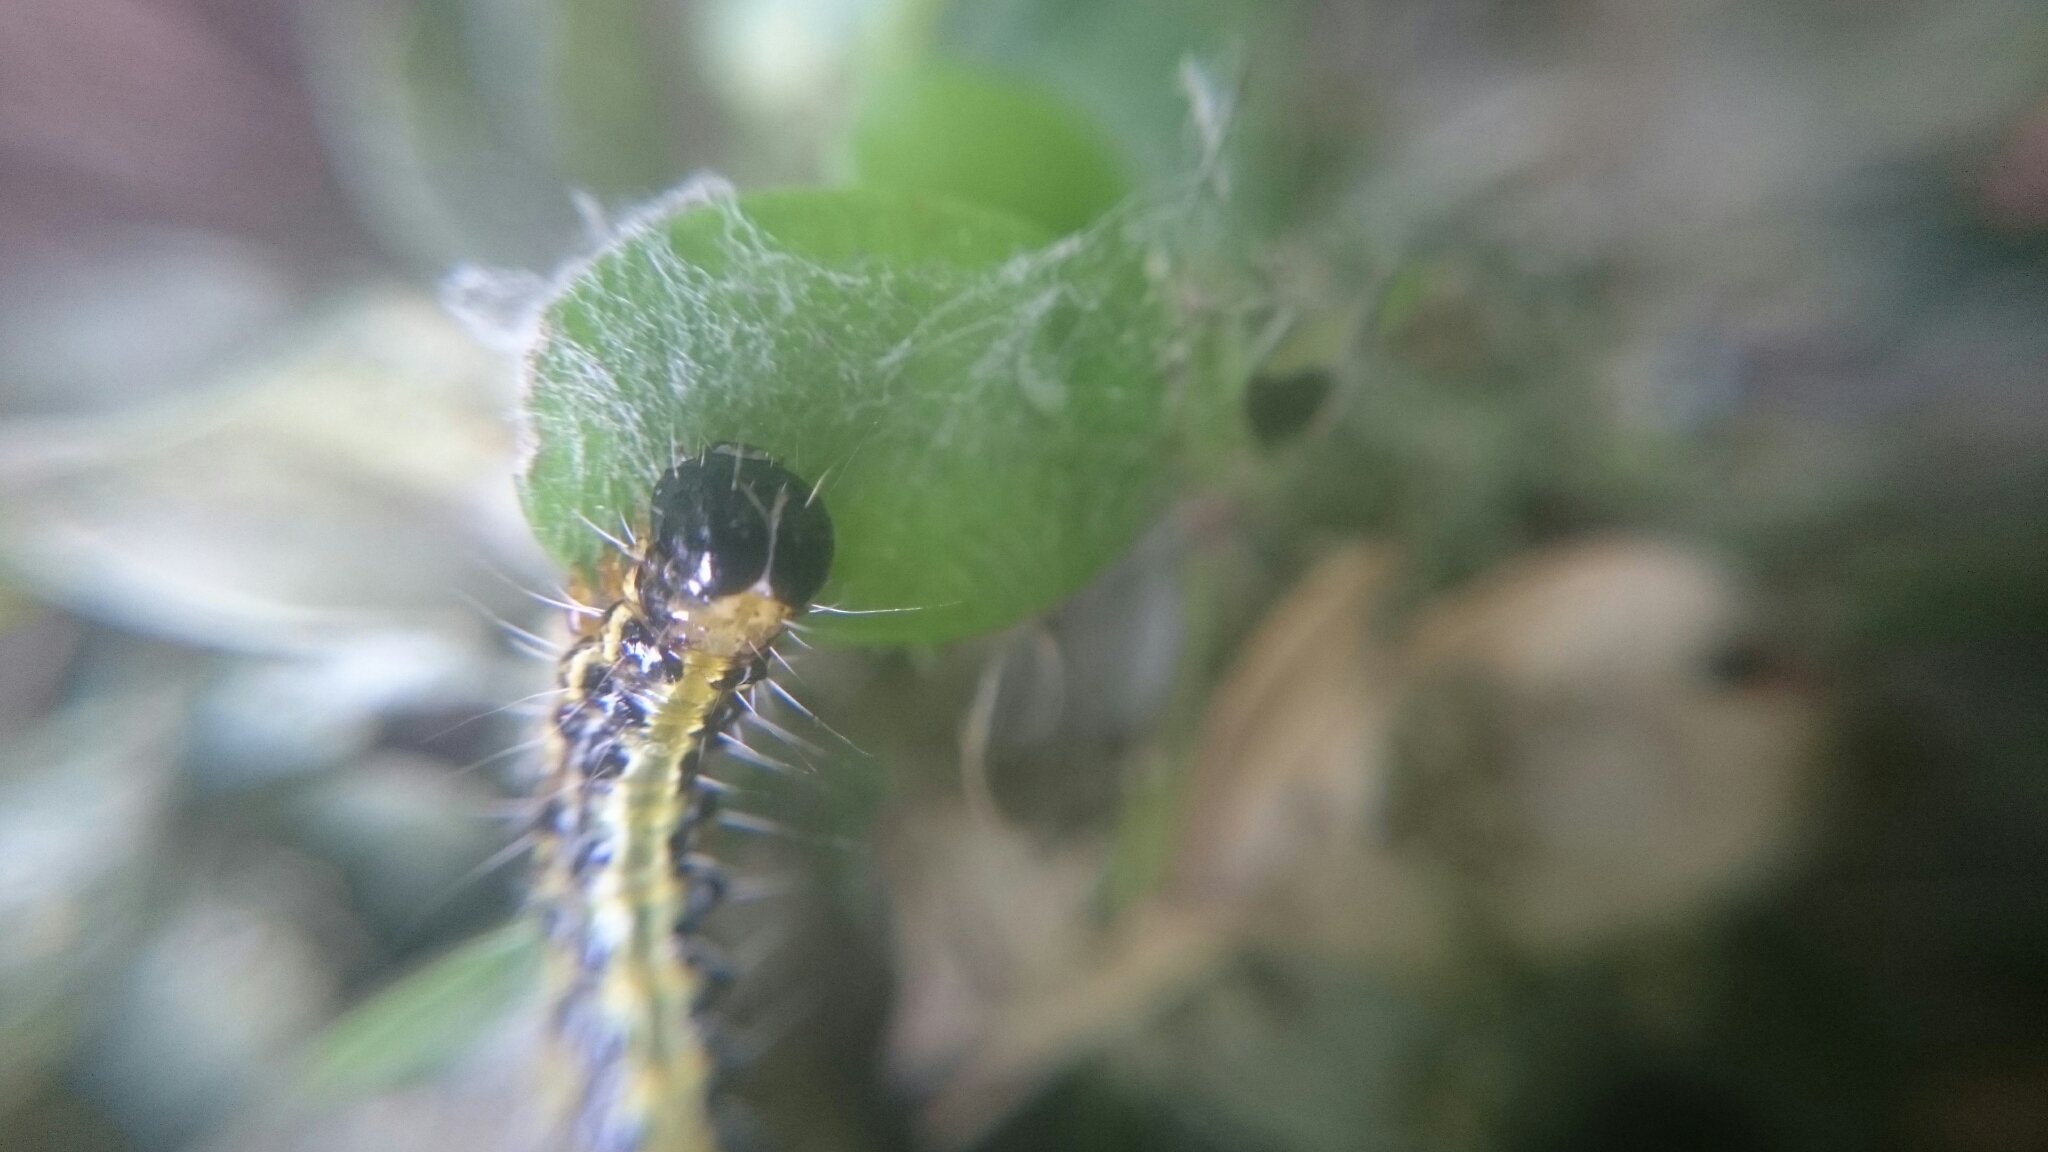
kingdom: Animalia
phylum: Arthropoda
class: Insecta
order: Lepidoptera
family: Crambidae
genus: Cydalima
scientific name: Cydalima perspectalis
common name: Box tree moth
